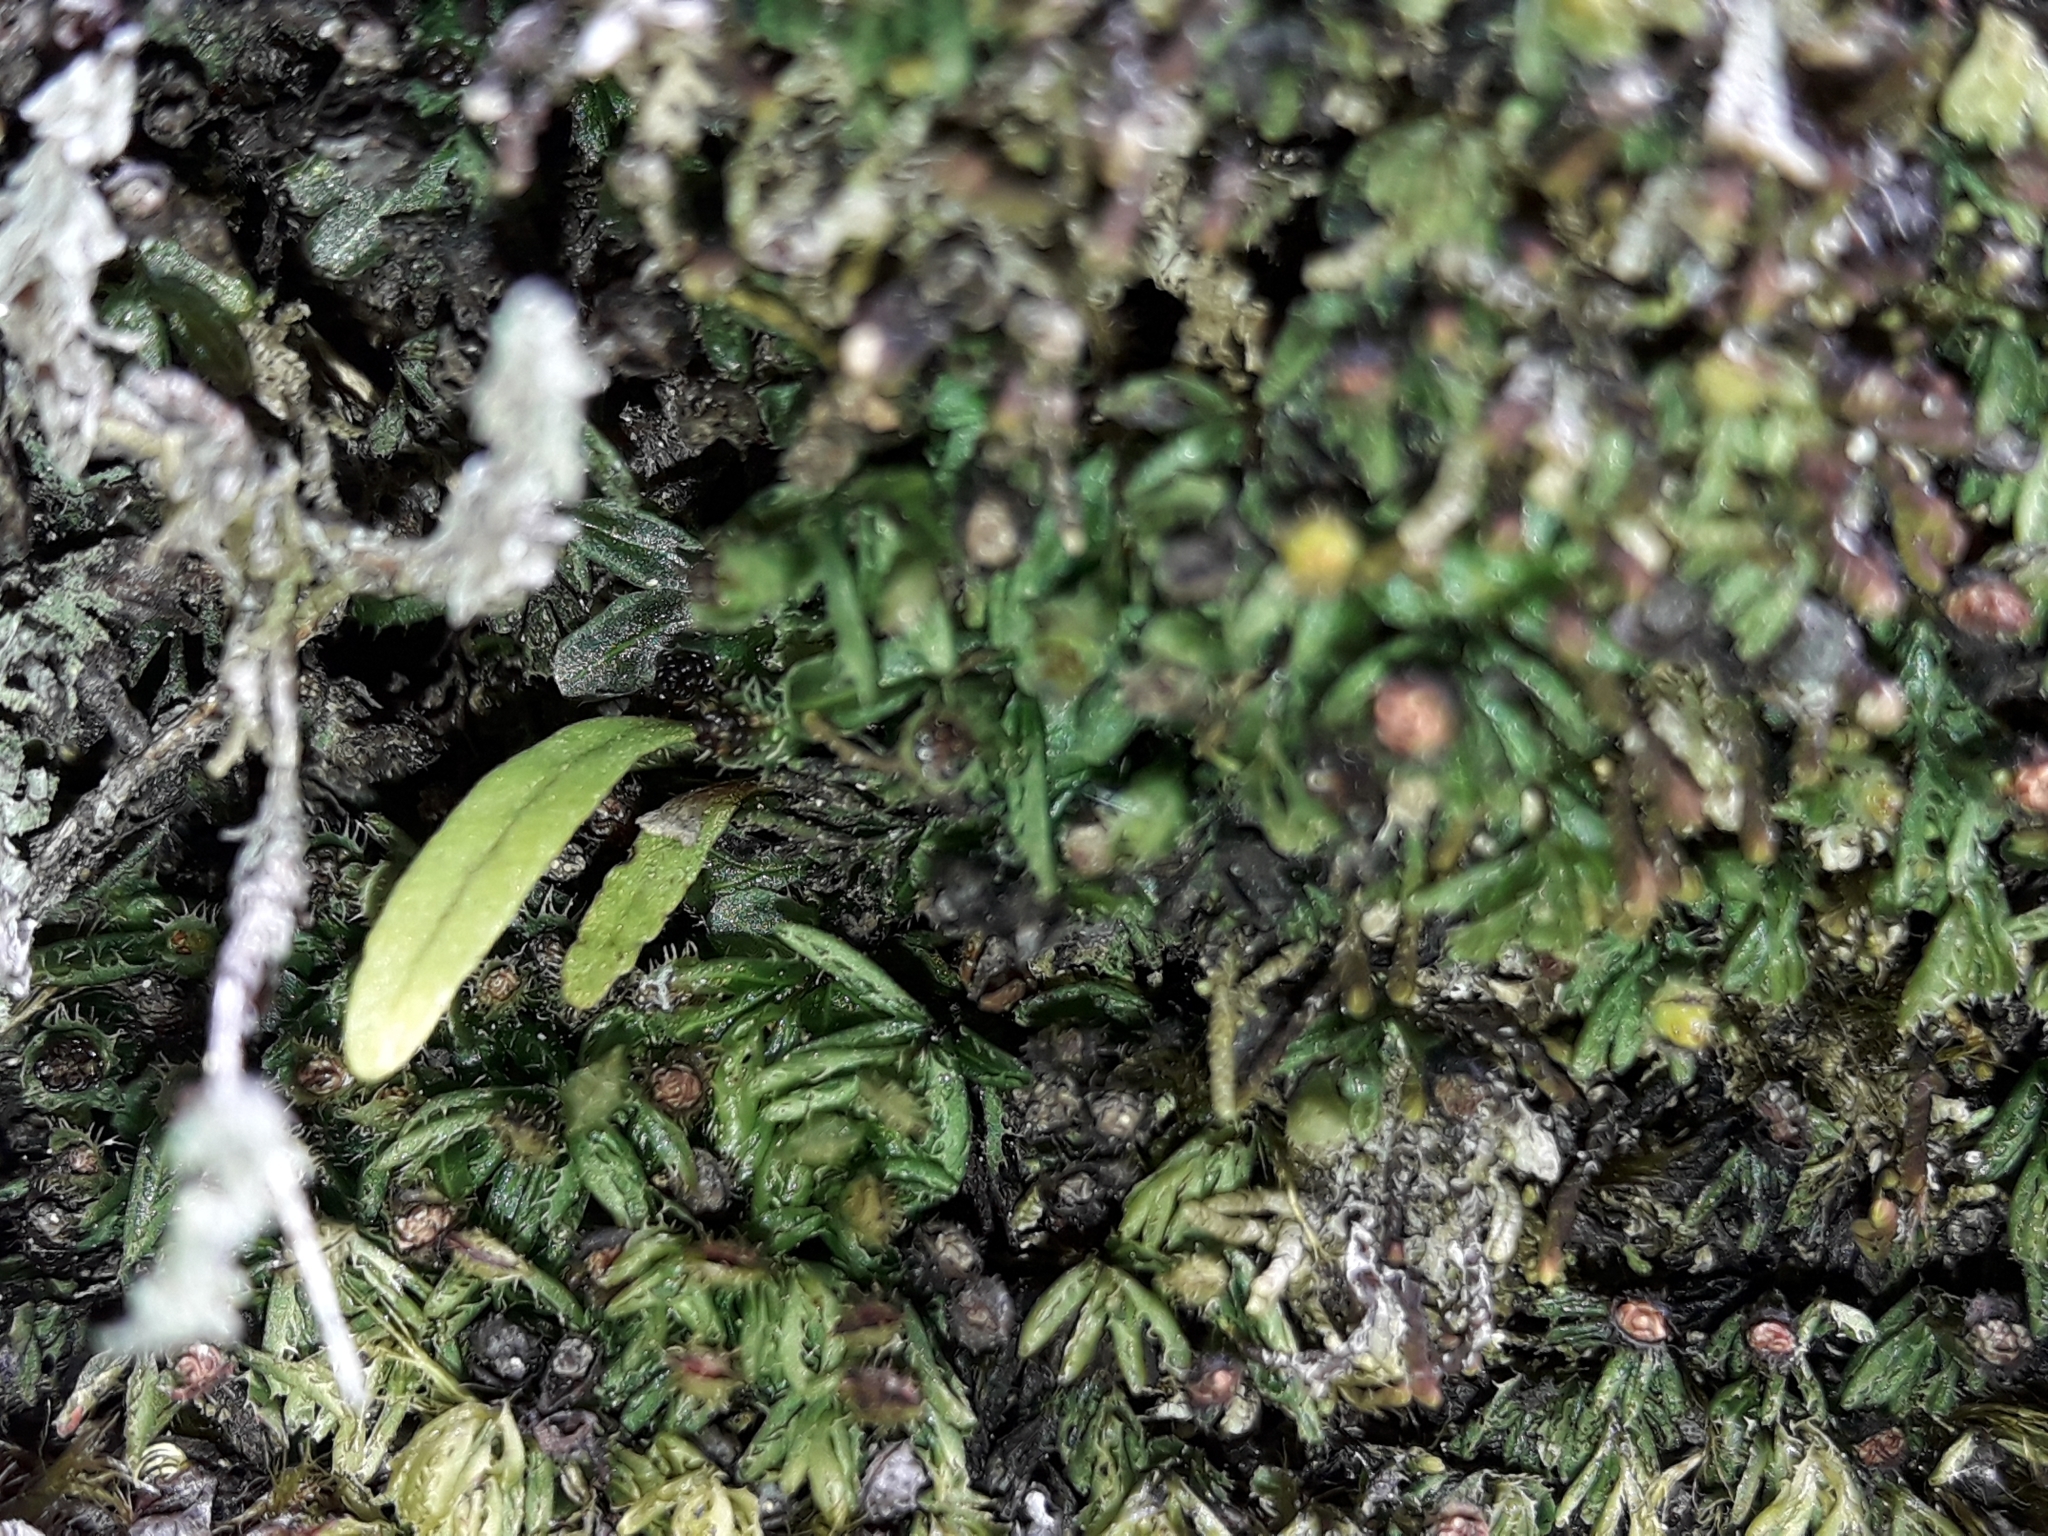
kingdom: Plantae
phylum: Tracheophyta
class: Polypodiopsida
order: Hymenophyllales
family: Hymenophyllaceae
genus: Hymenophyllum
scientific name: Hymenophyllum minimum
